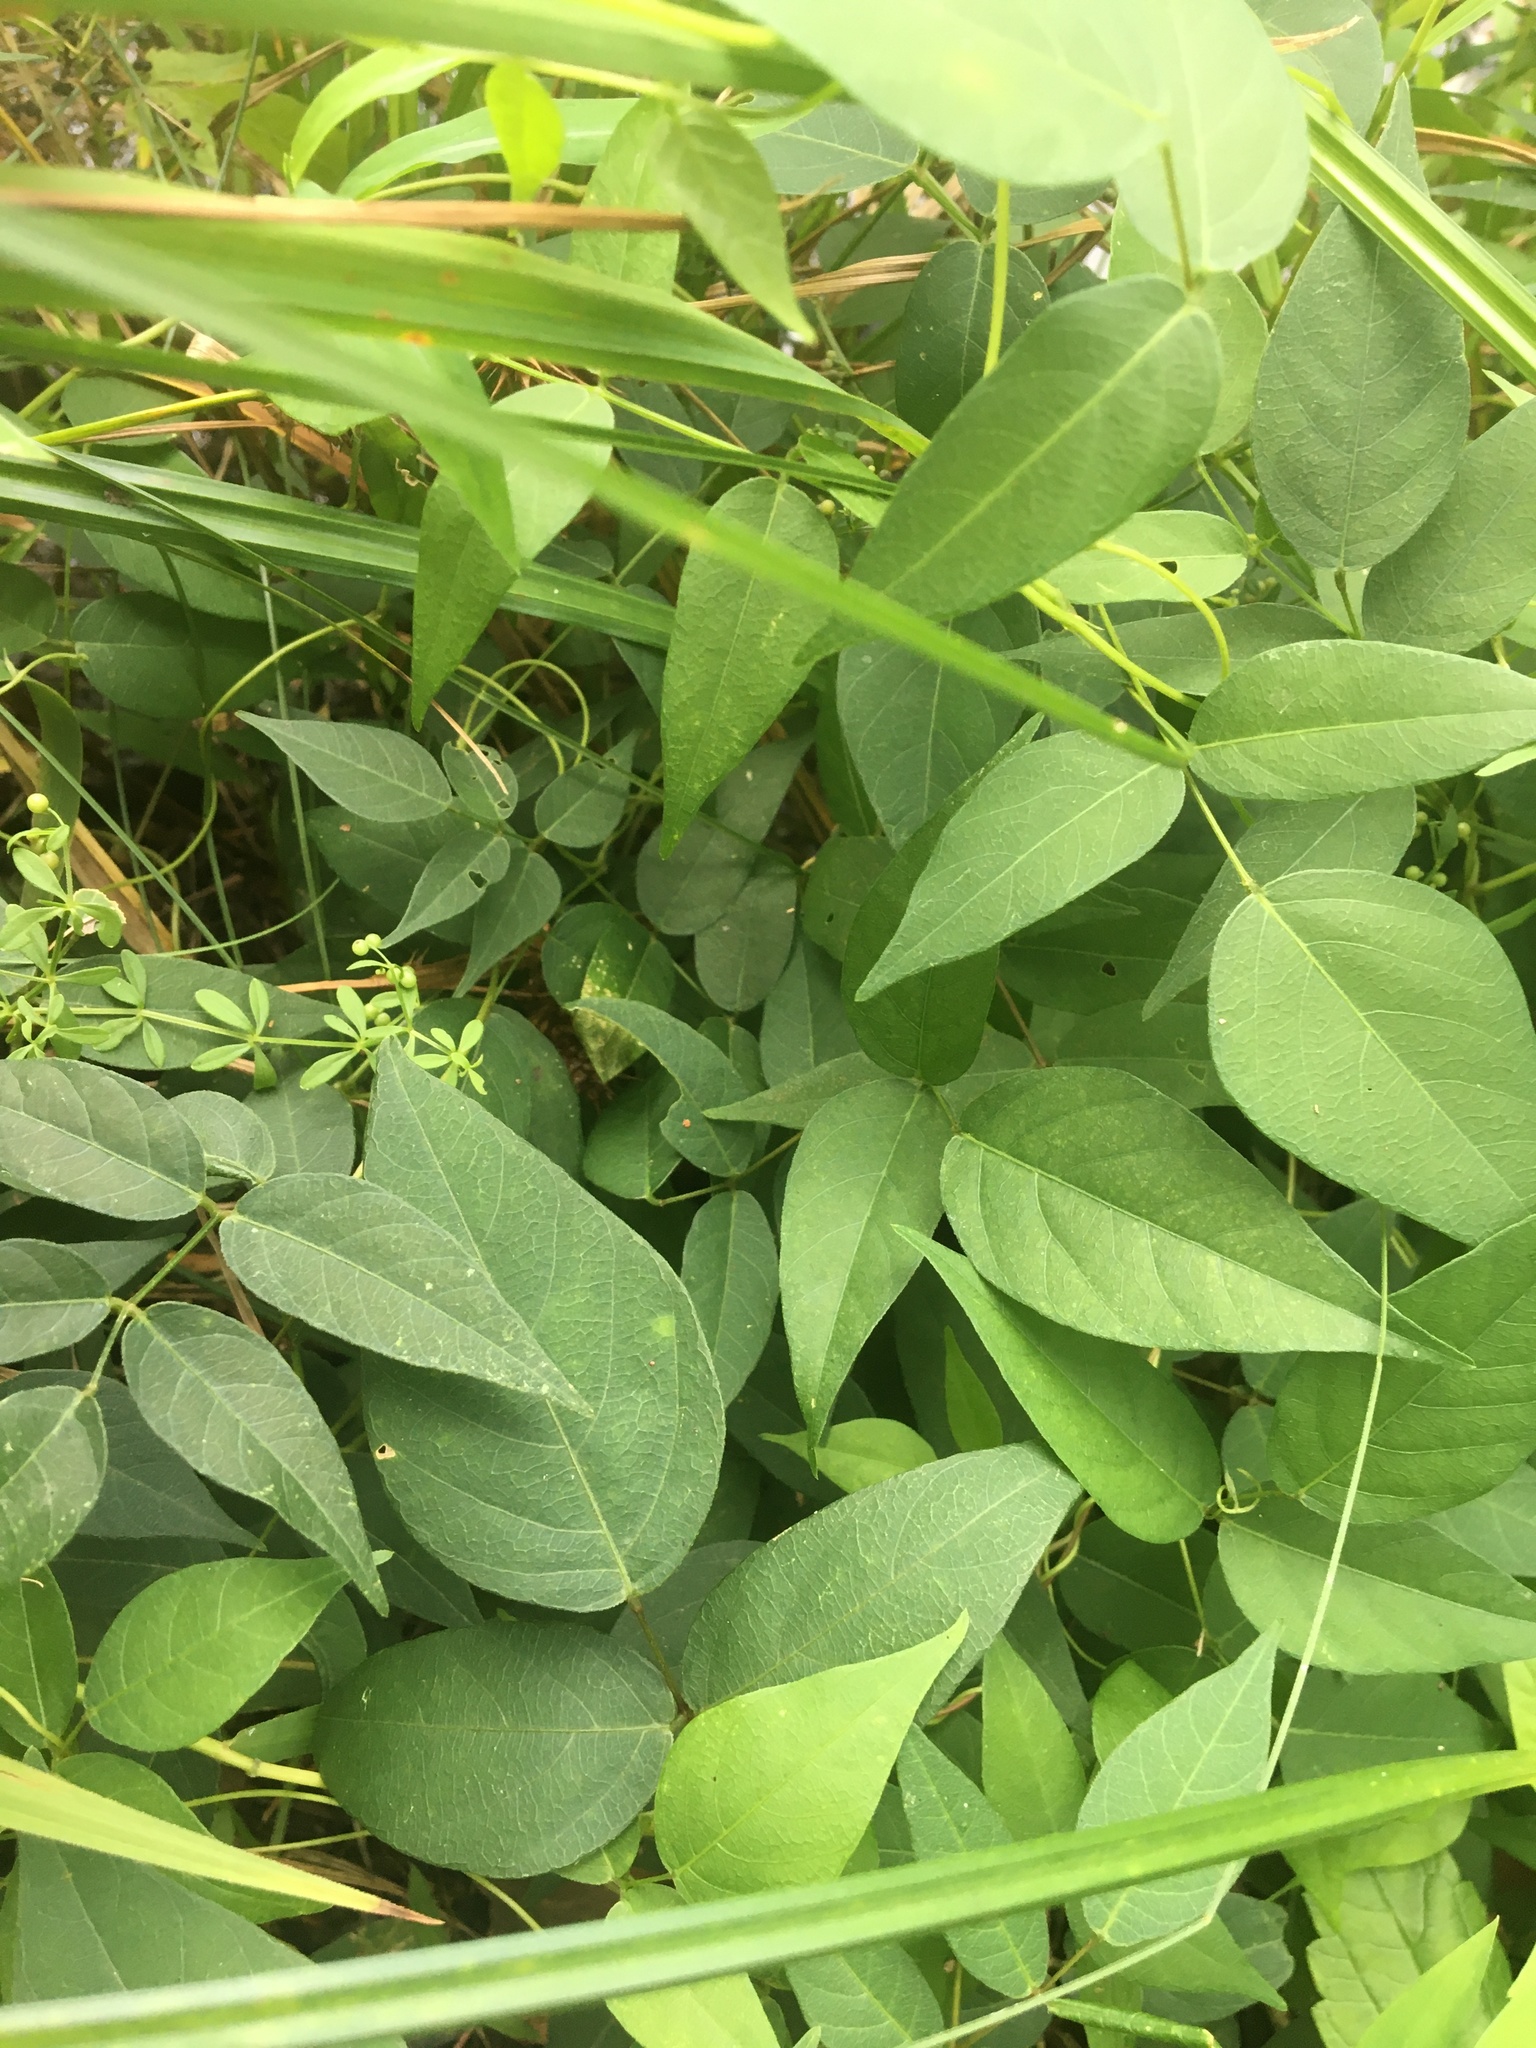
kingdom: Plantae
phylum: Tracheophyta
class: Magnoliopsida
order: Fabales
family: Fabaceae
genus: Apios
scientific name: Apios americana
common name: American potato-bean
